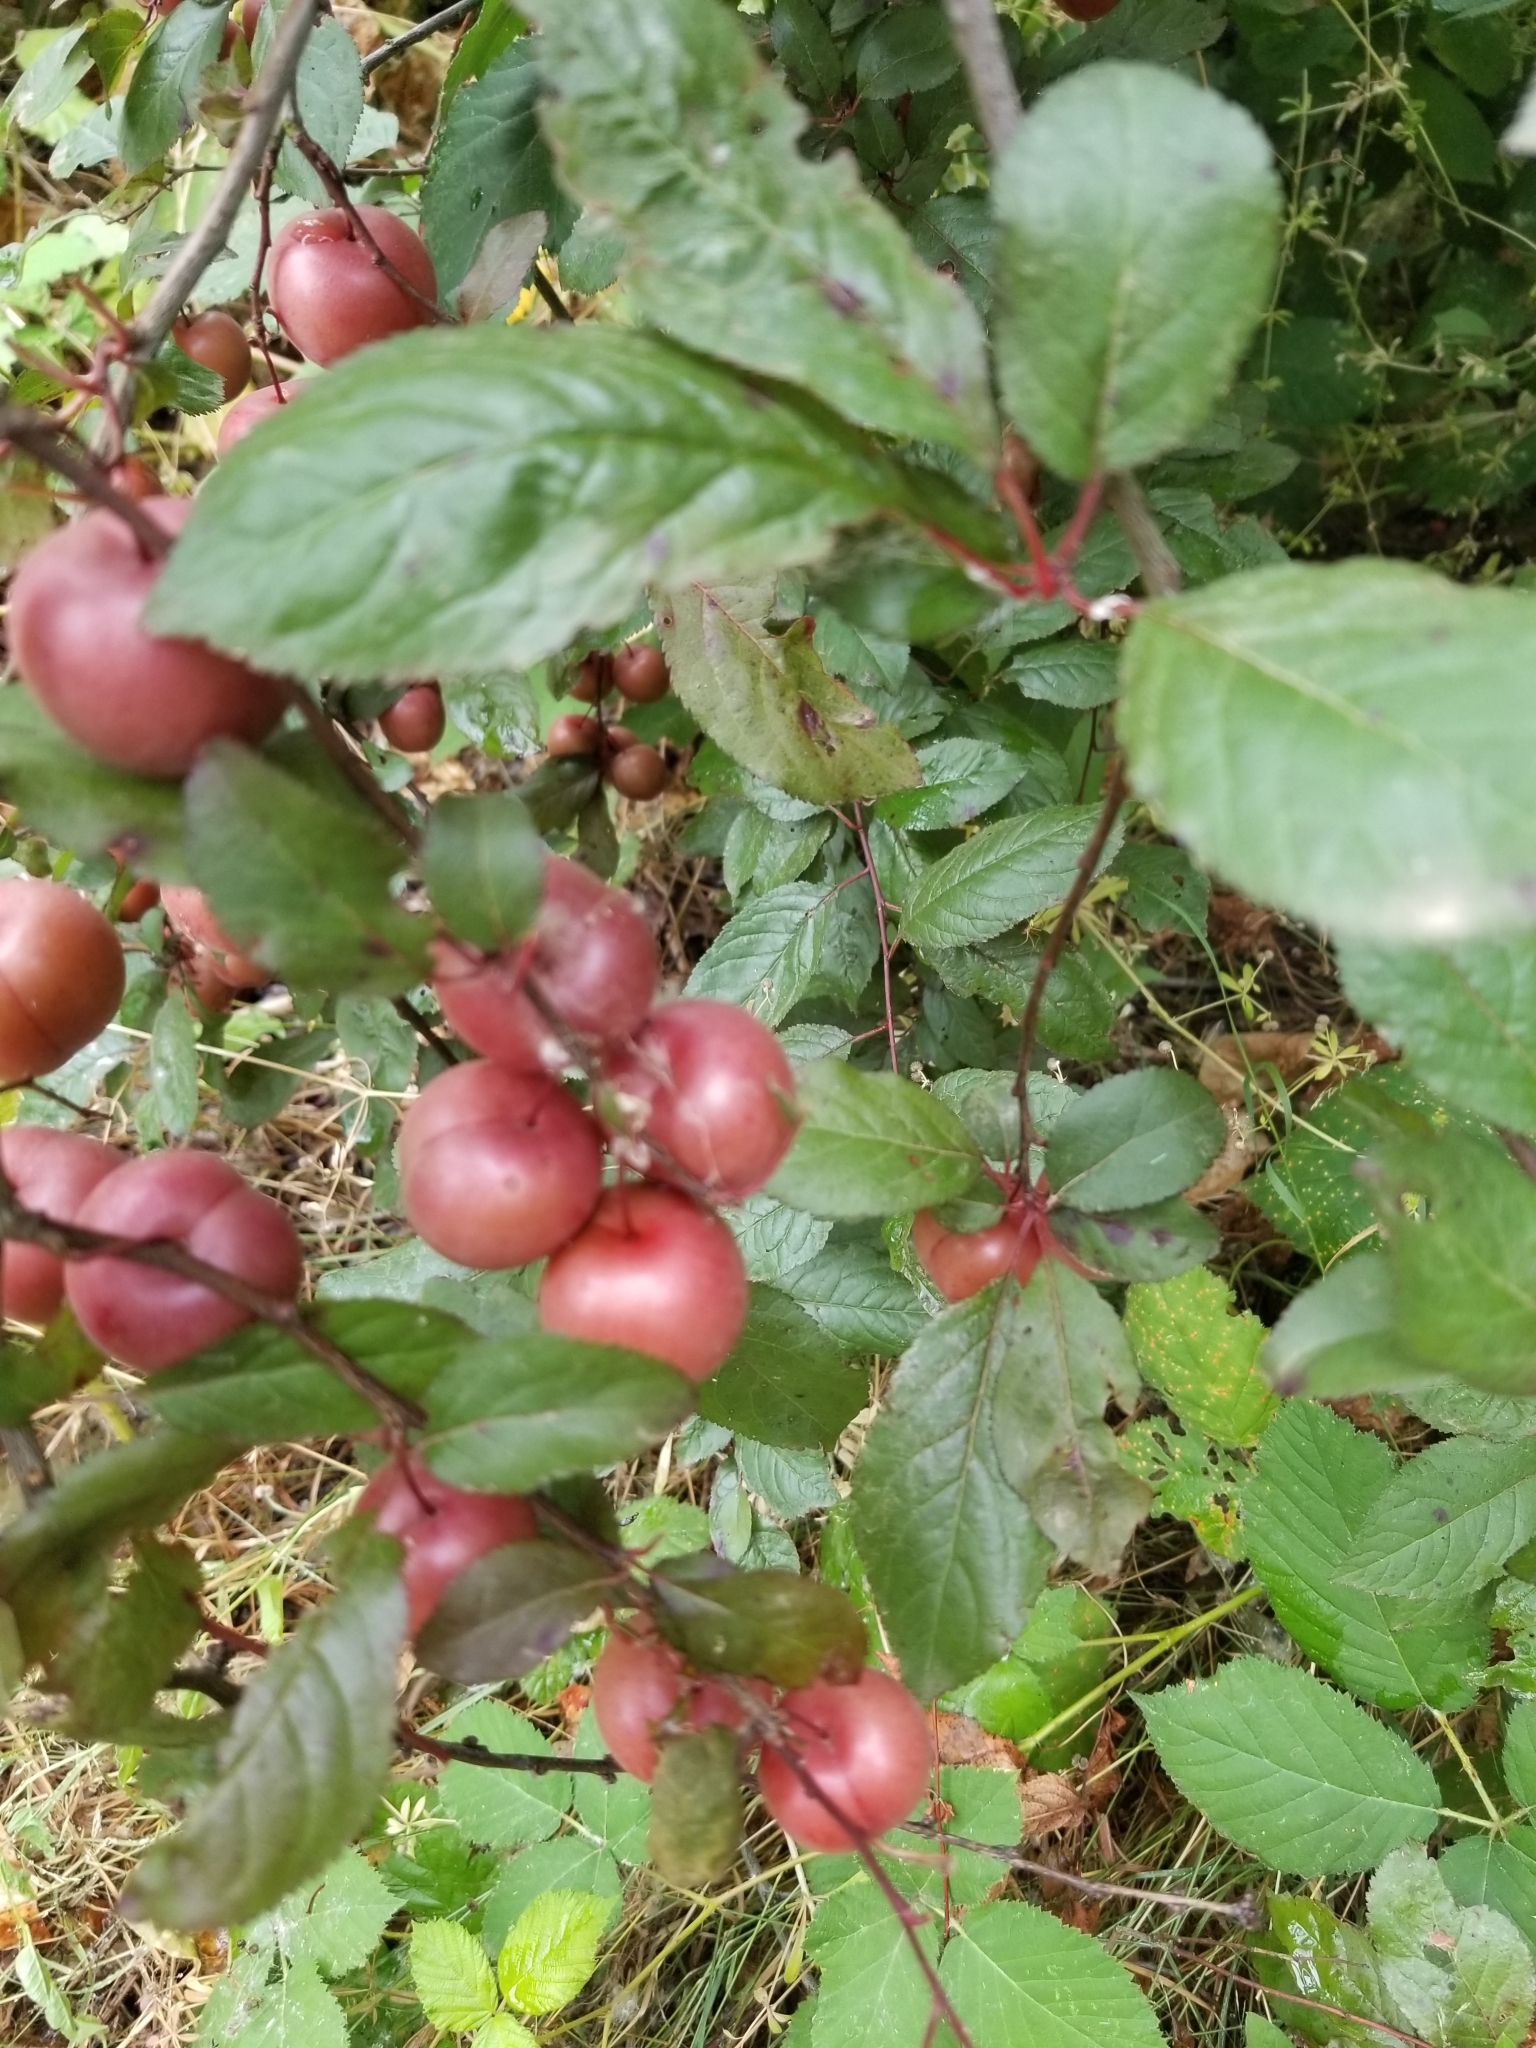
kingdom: Plantae
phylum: Tracheophyta
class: Magnoliopsida
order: Rosales
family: Rosaceae
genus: Prunus
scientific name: Prunus cerasifera
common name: Cherry plum
